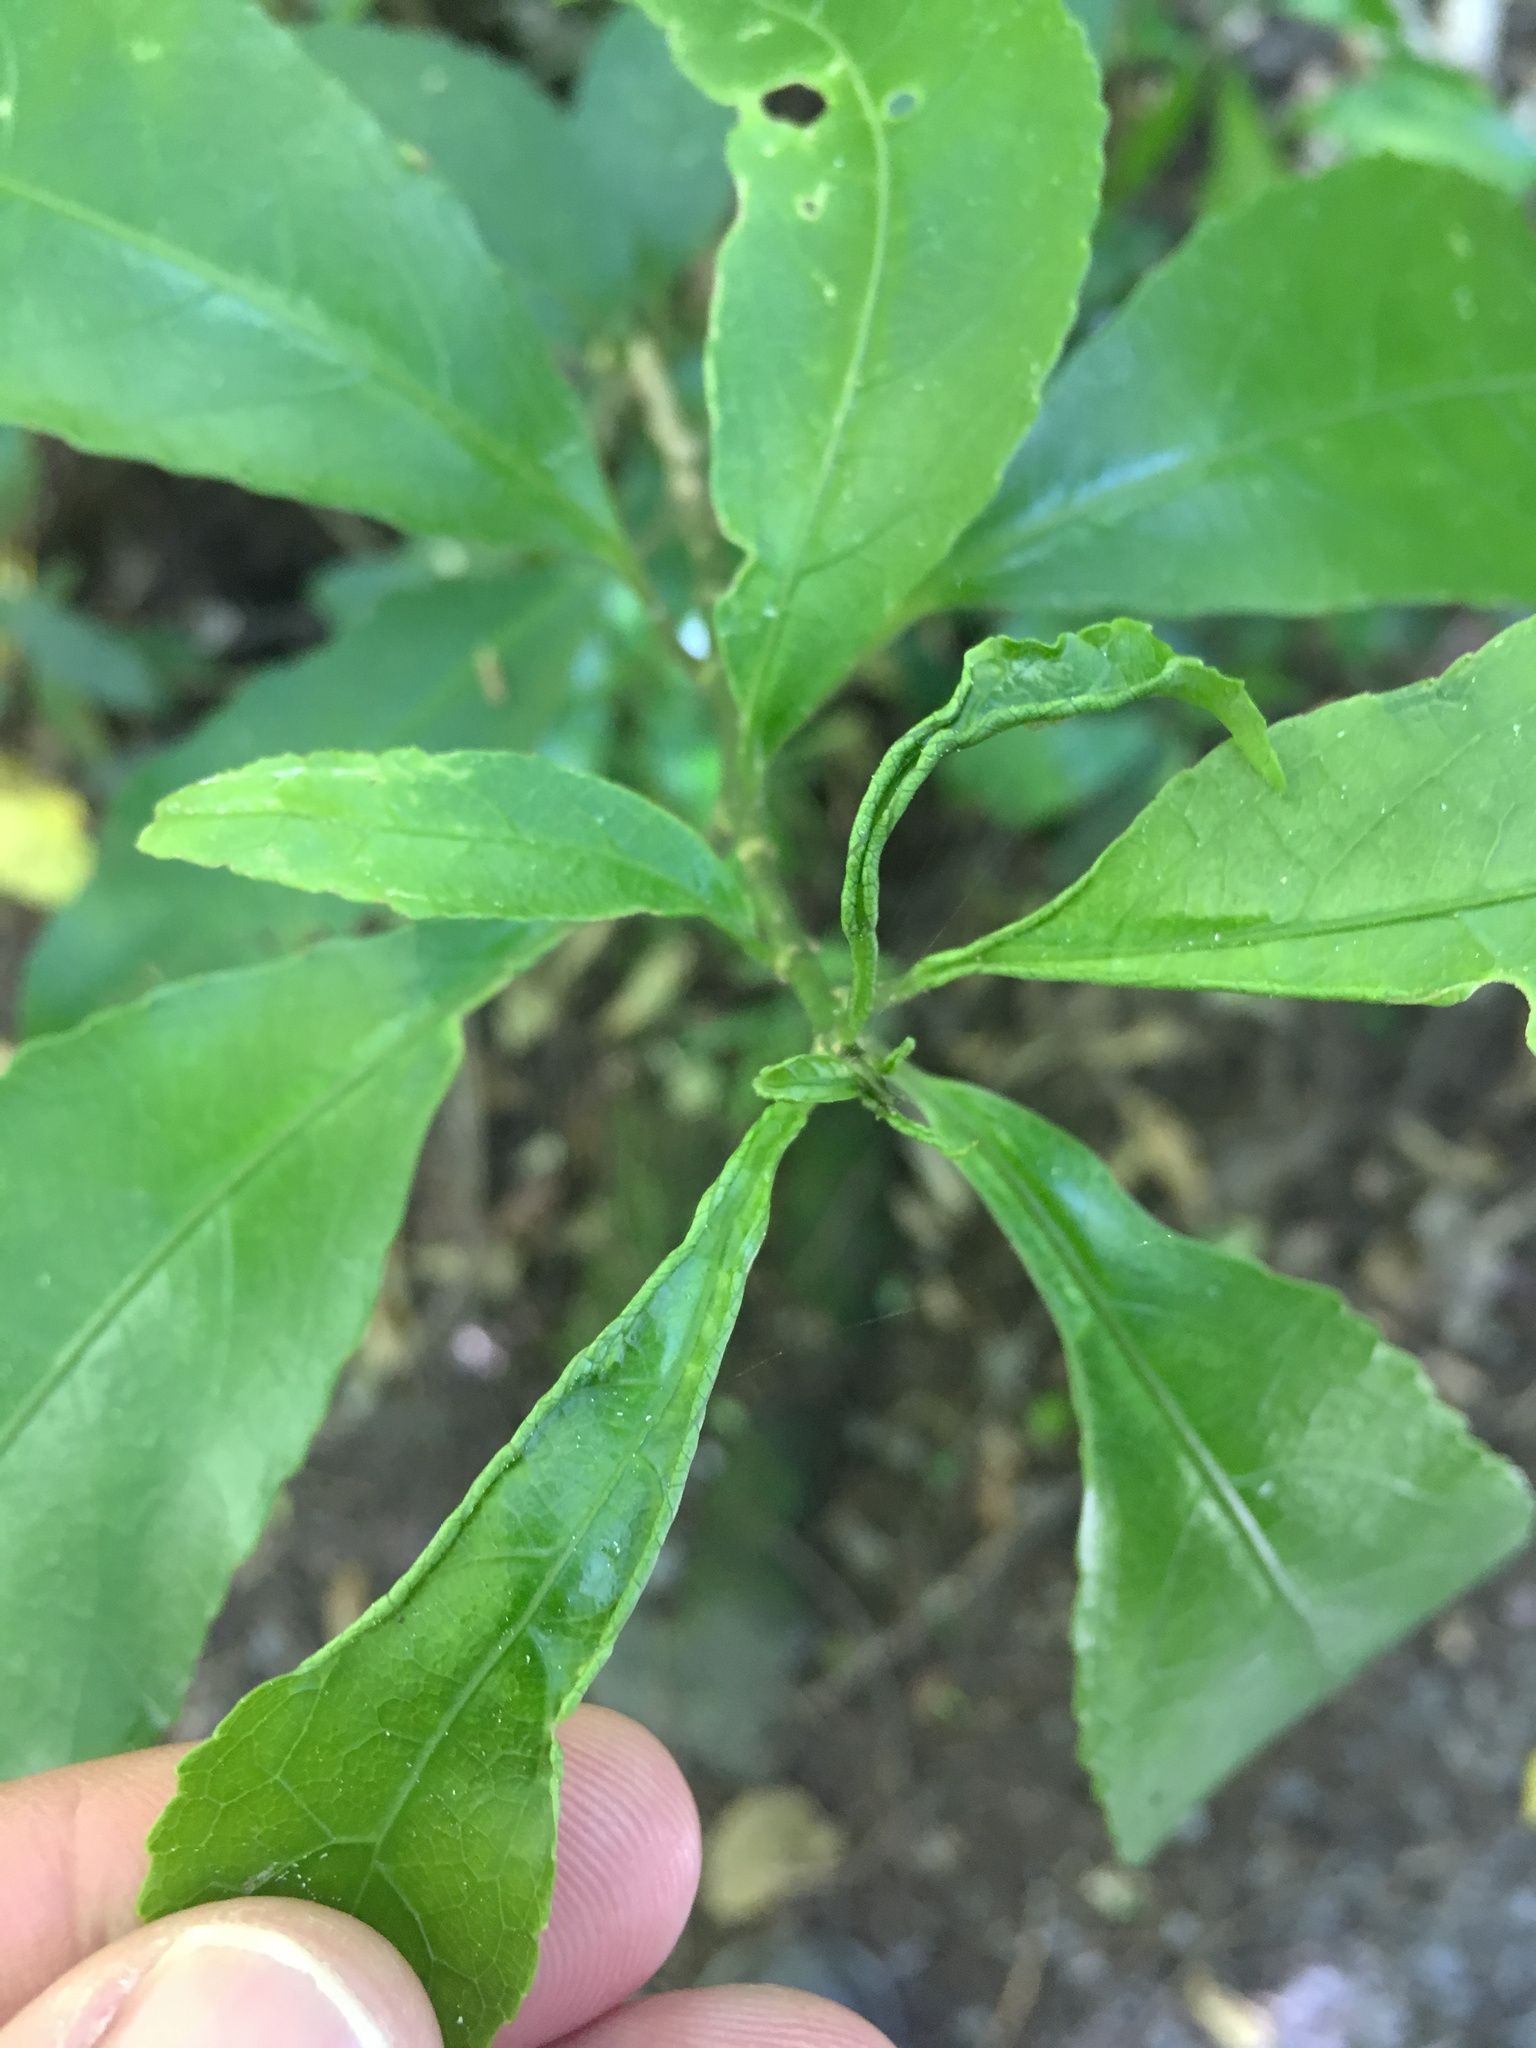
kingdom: Animalia
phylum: Arthropoda
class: Arachnida
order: Trombidiformes
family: Eriophyidae
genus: Aceria
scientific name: Aceria
